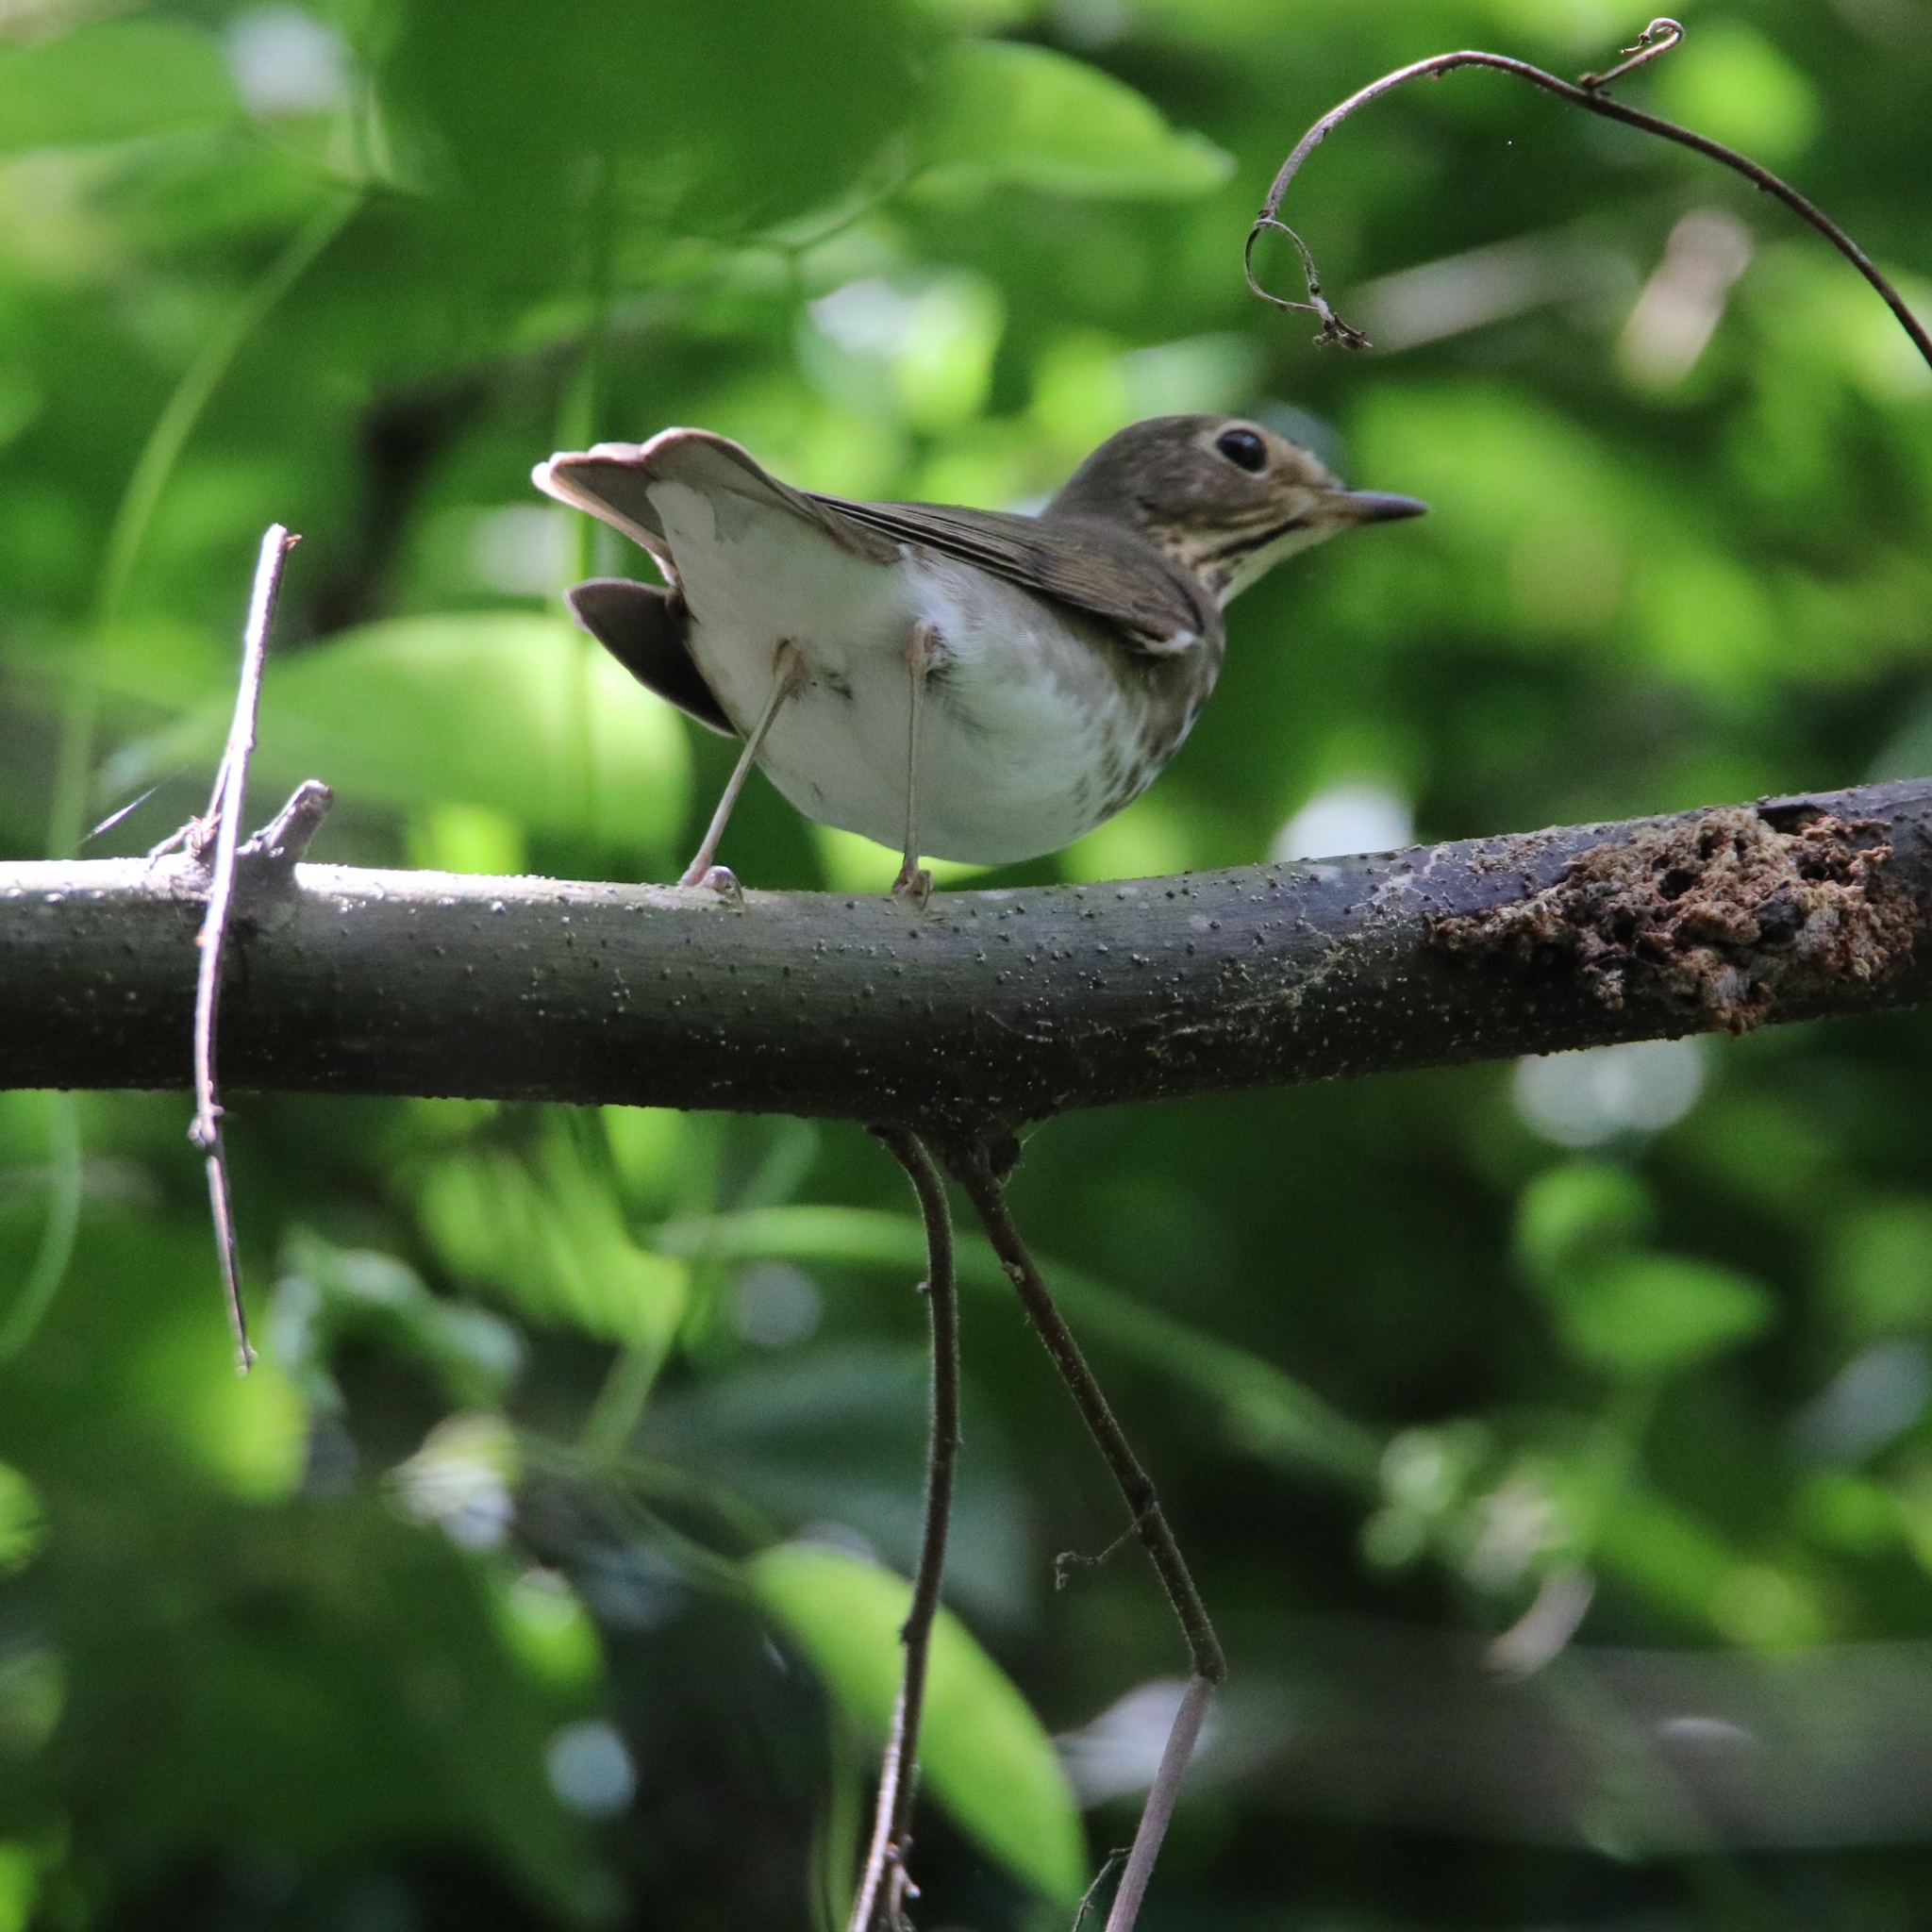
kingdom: Animalia
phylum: Chordata
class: Aves
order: Passeriformes
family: Turdidae
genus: Catharus
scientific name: Catharus ustulatus
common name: Swainson's thrush
